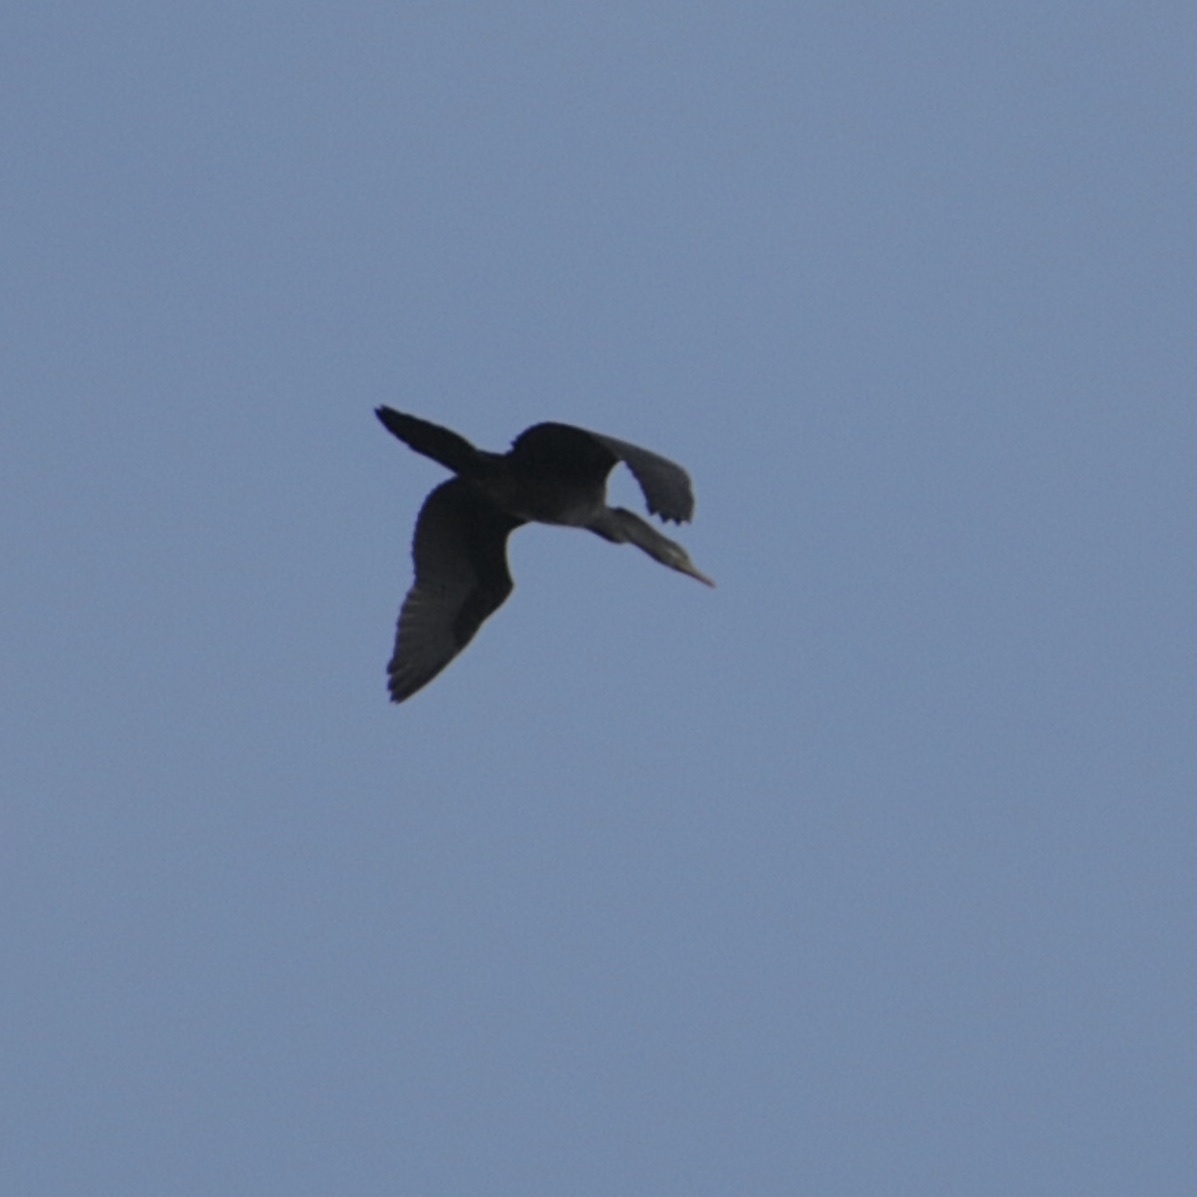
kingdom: Animalia
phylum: Chordata
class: Aves
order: Suliformes
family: Phalacrocoracidae
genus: Phalacrocorax
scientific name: Phalacrocorax brasilianus
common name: Neotropic cormorant
